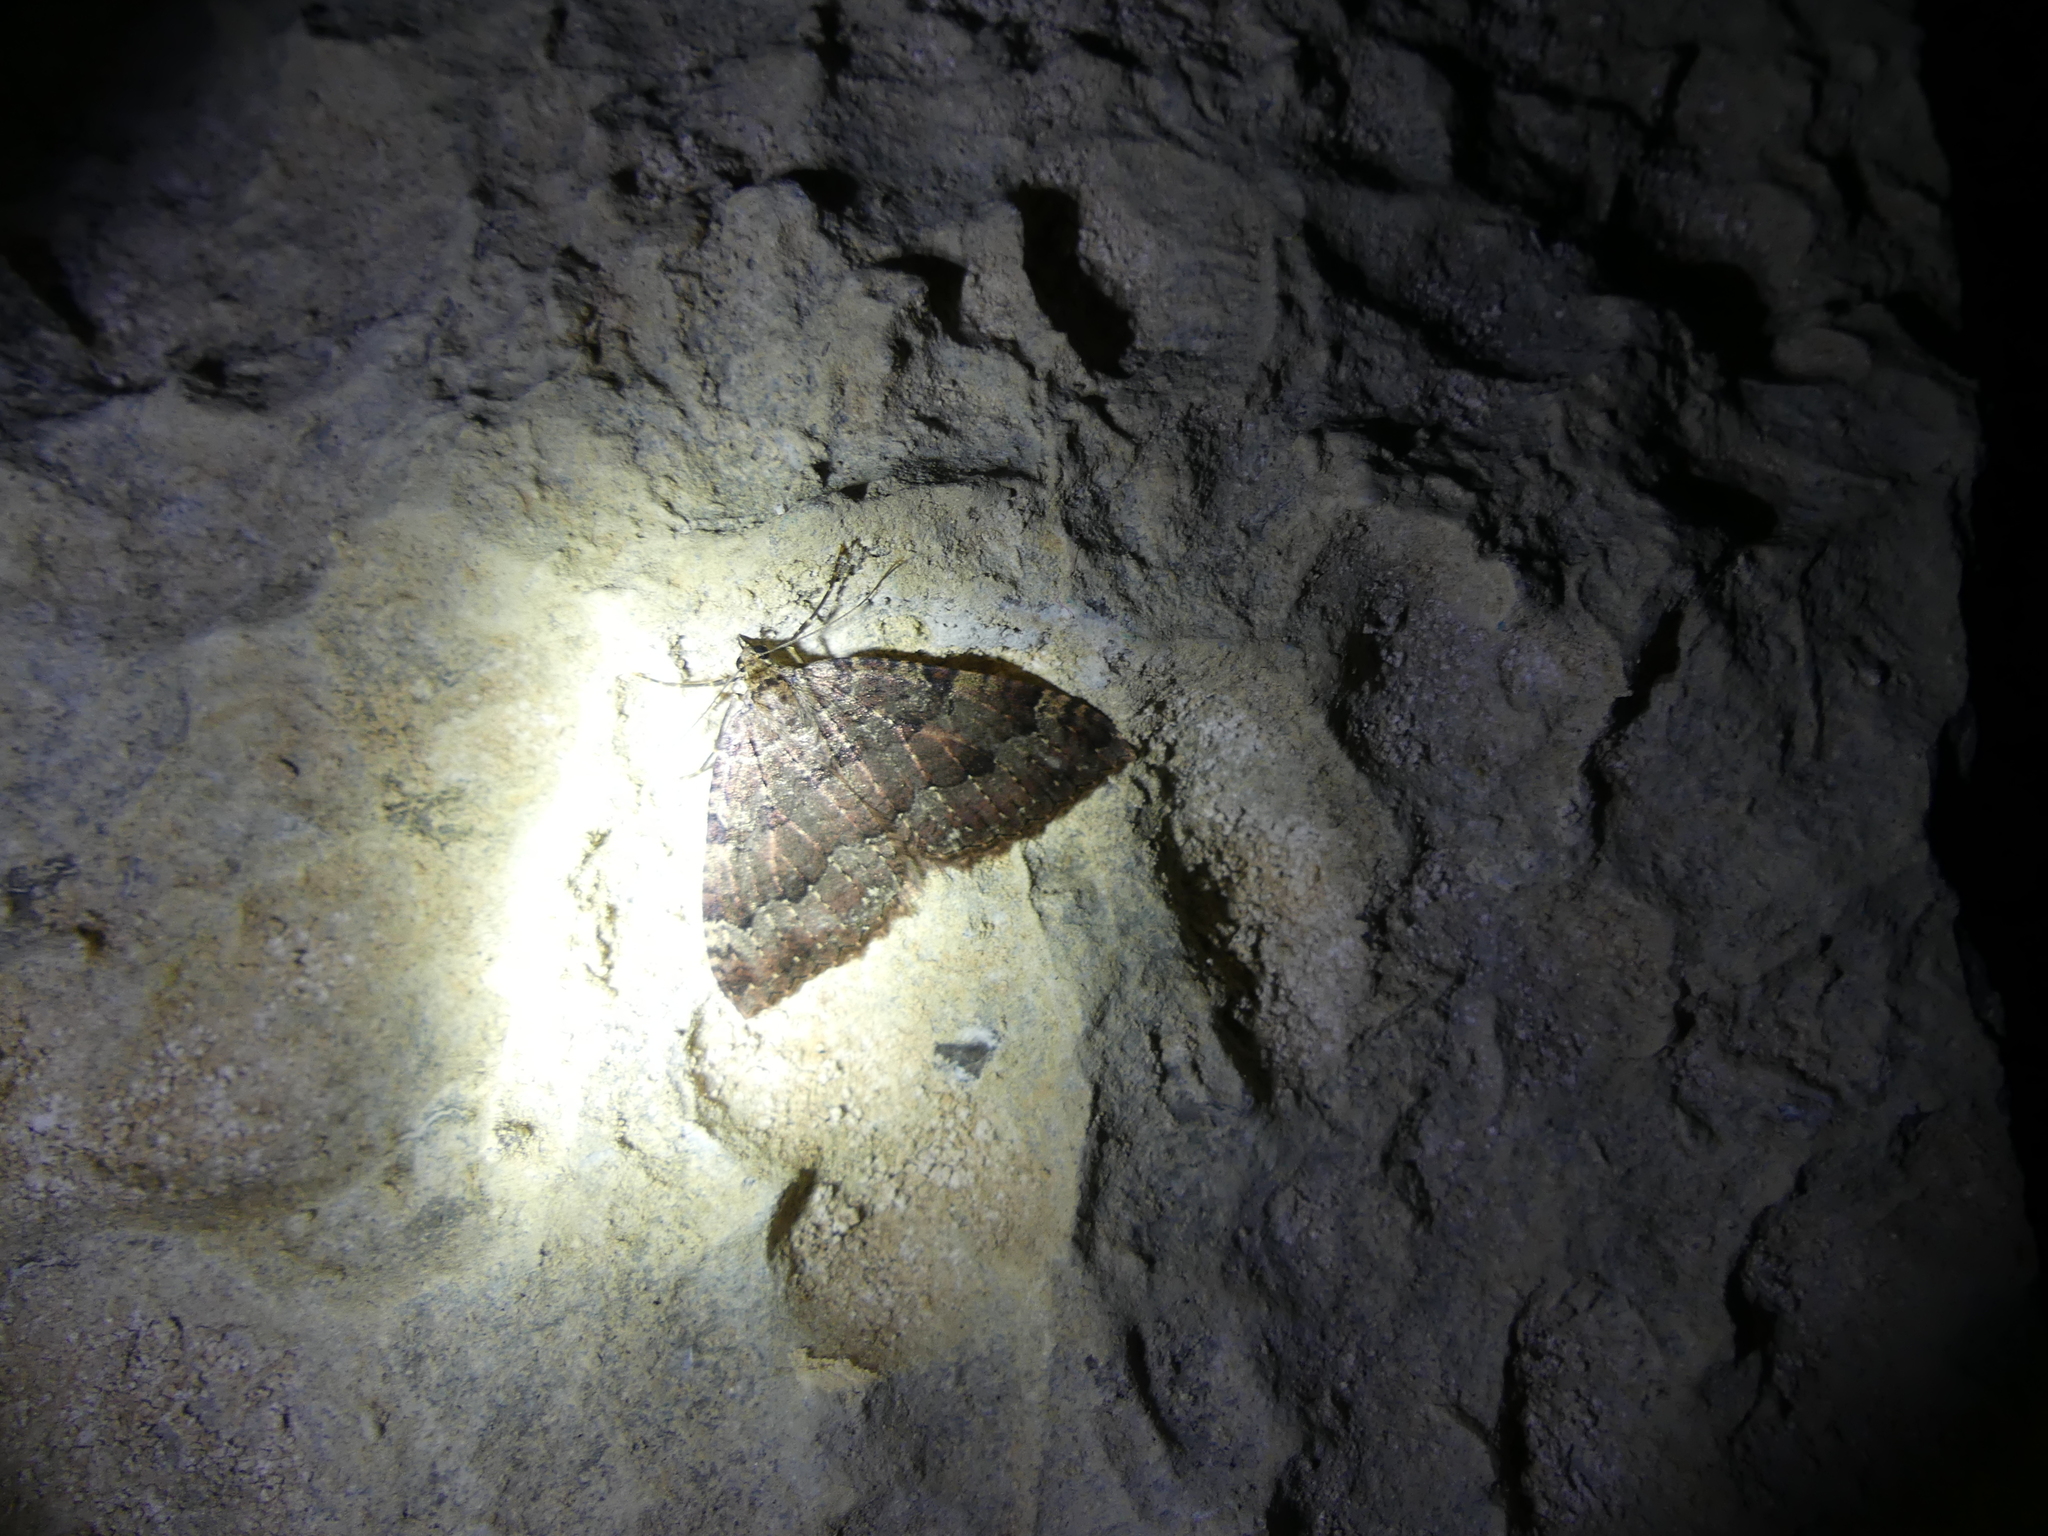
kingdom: Animalia
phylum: Arthropoda
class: Insecta
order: Lepidoptera
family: Geometridae
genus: Triphosa
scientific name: Triphosa dubitata
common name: Tissue
